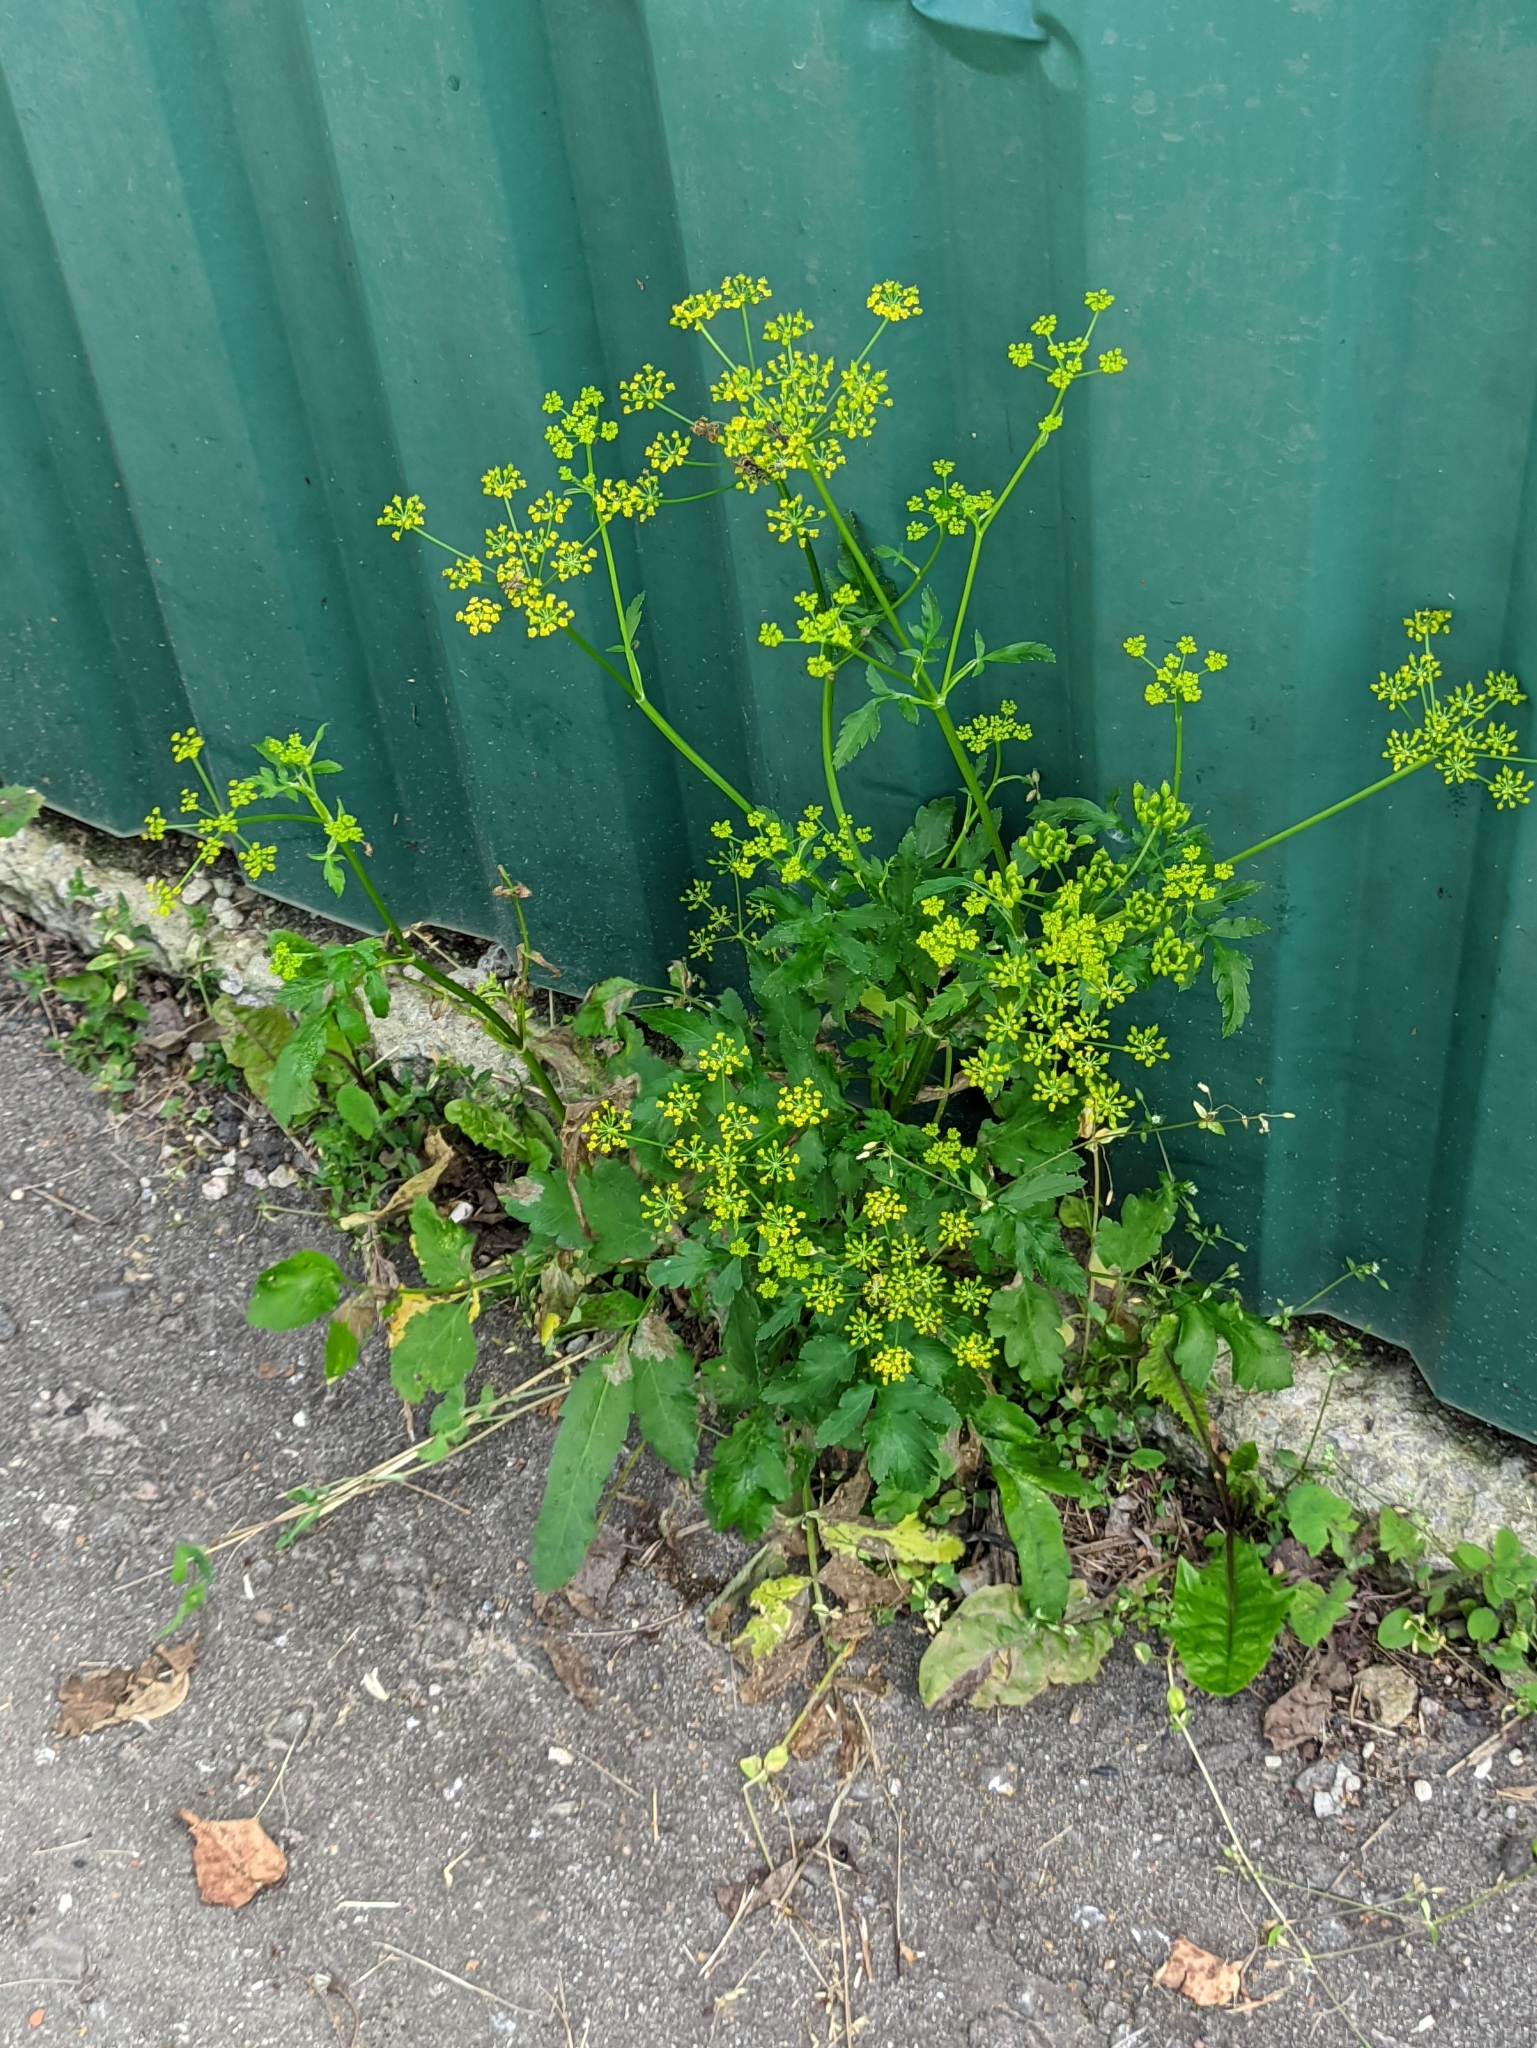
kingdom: Plantae
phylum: Tracheophyta
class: Magnoliopsida
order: Apiales
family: Apiaceae
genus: Pastinaca
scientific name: Pastinaca sativa
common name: Wild parsnip
